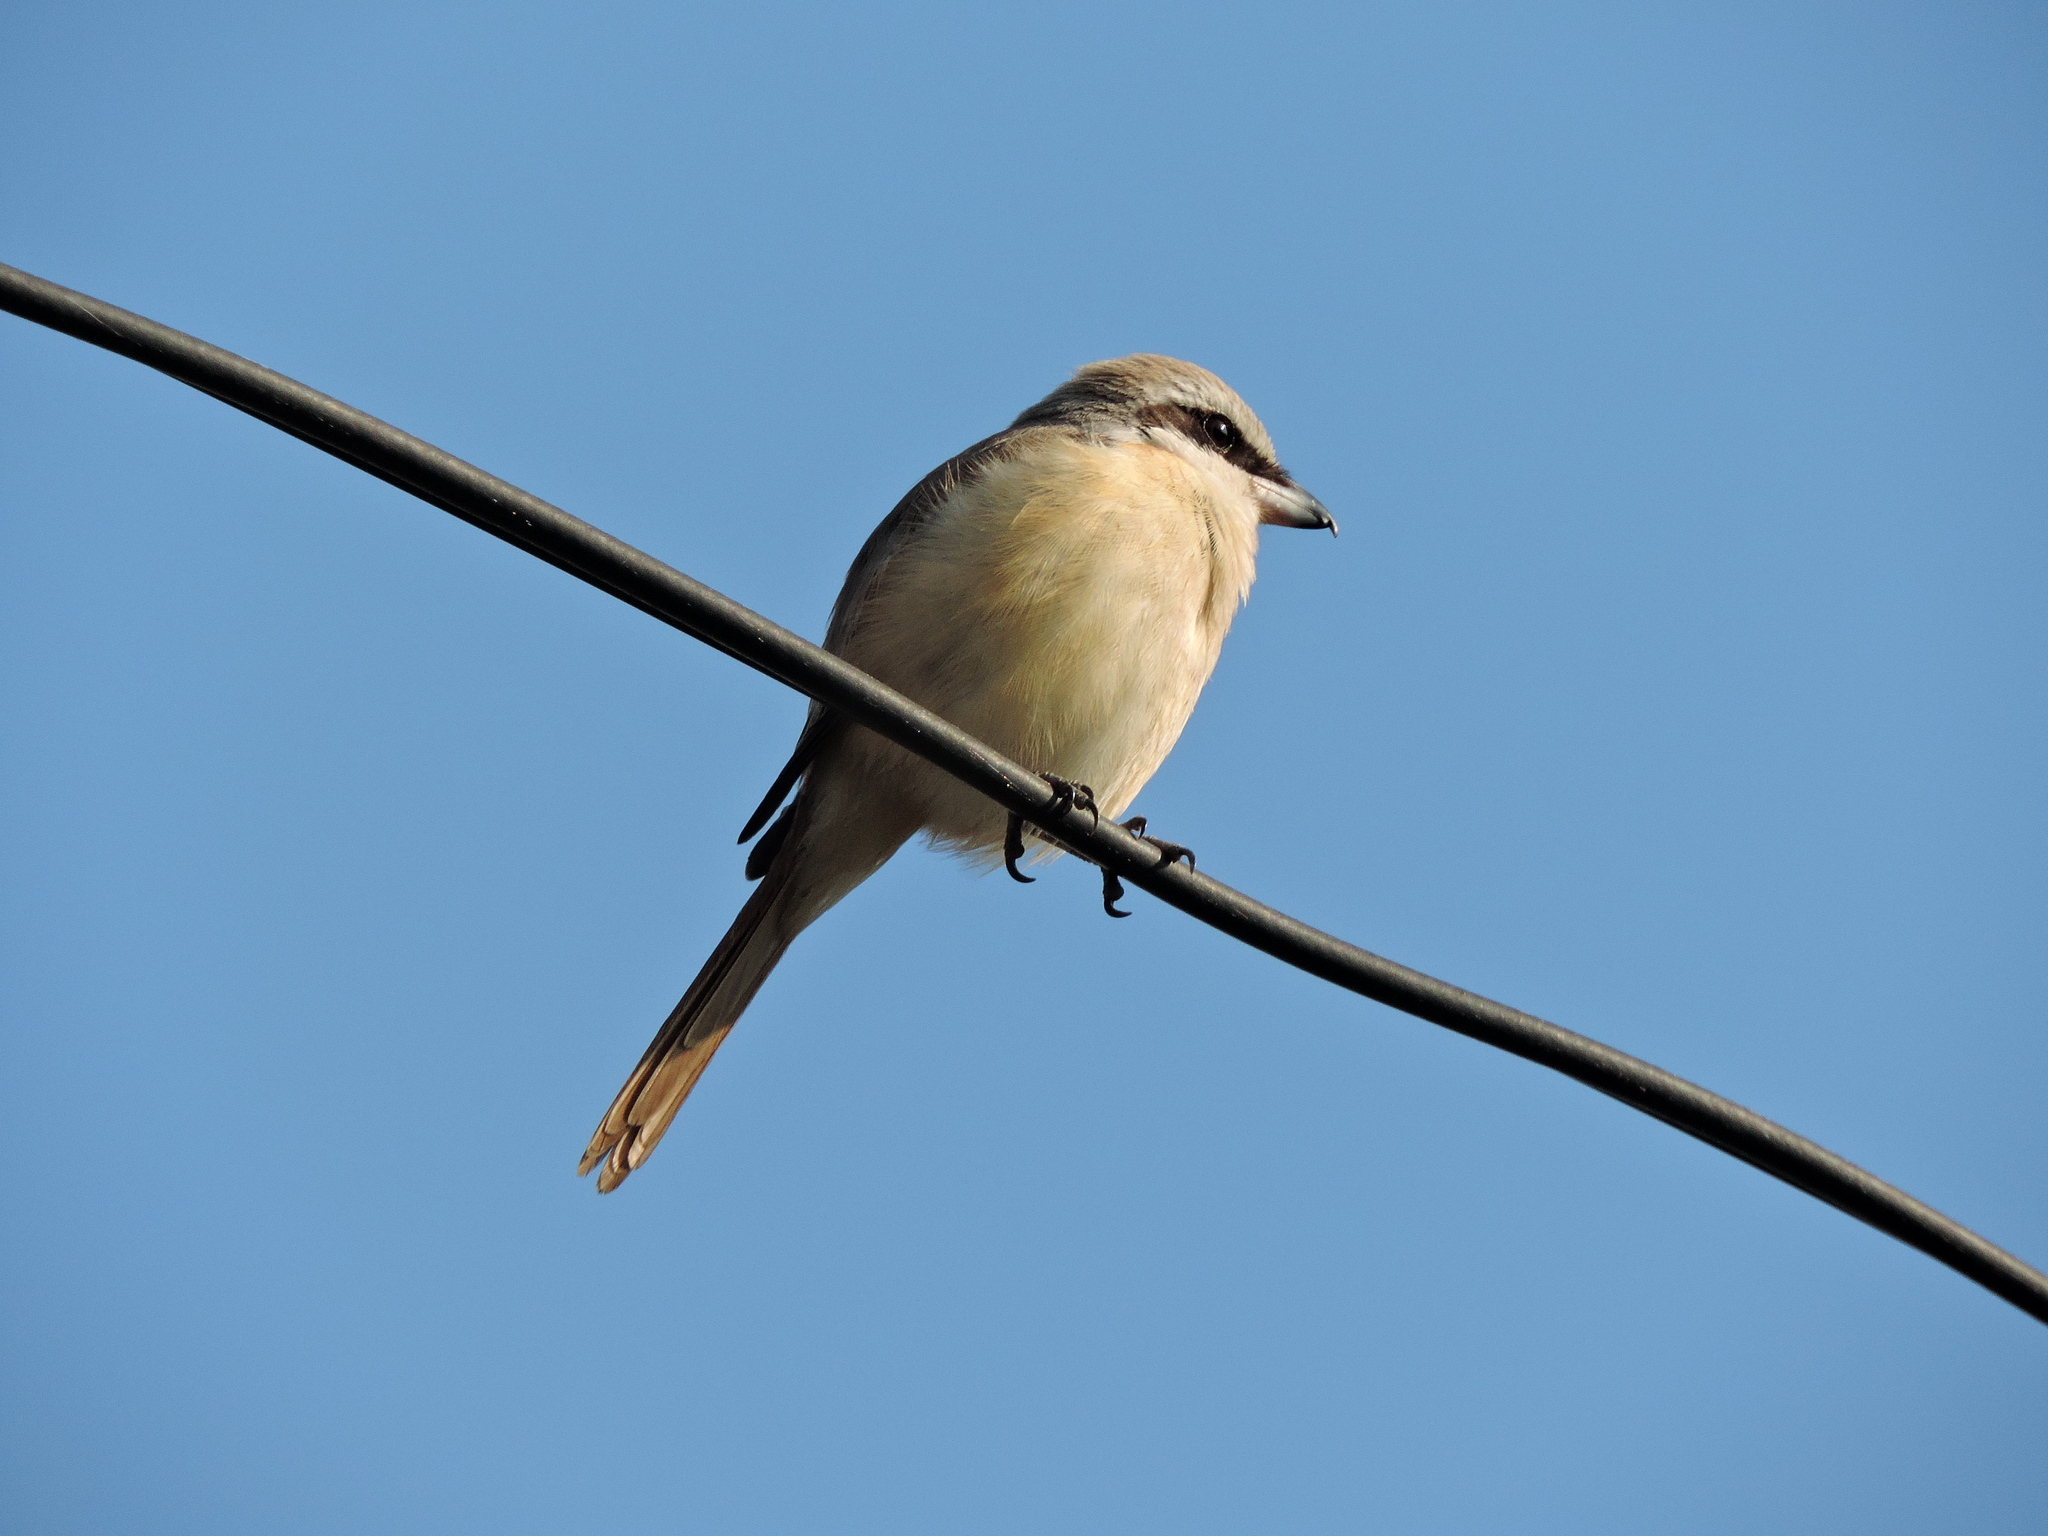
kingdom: Animalia
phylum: Chordata
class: Aves
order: Passeriformes
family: Laniidae
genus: Lanius
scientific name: Lanius cristatus
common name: Brown shrike
